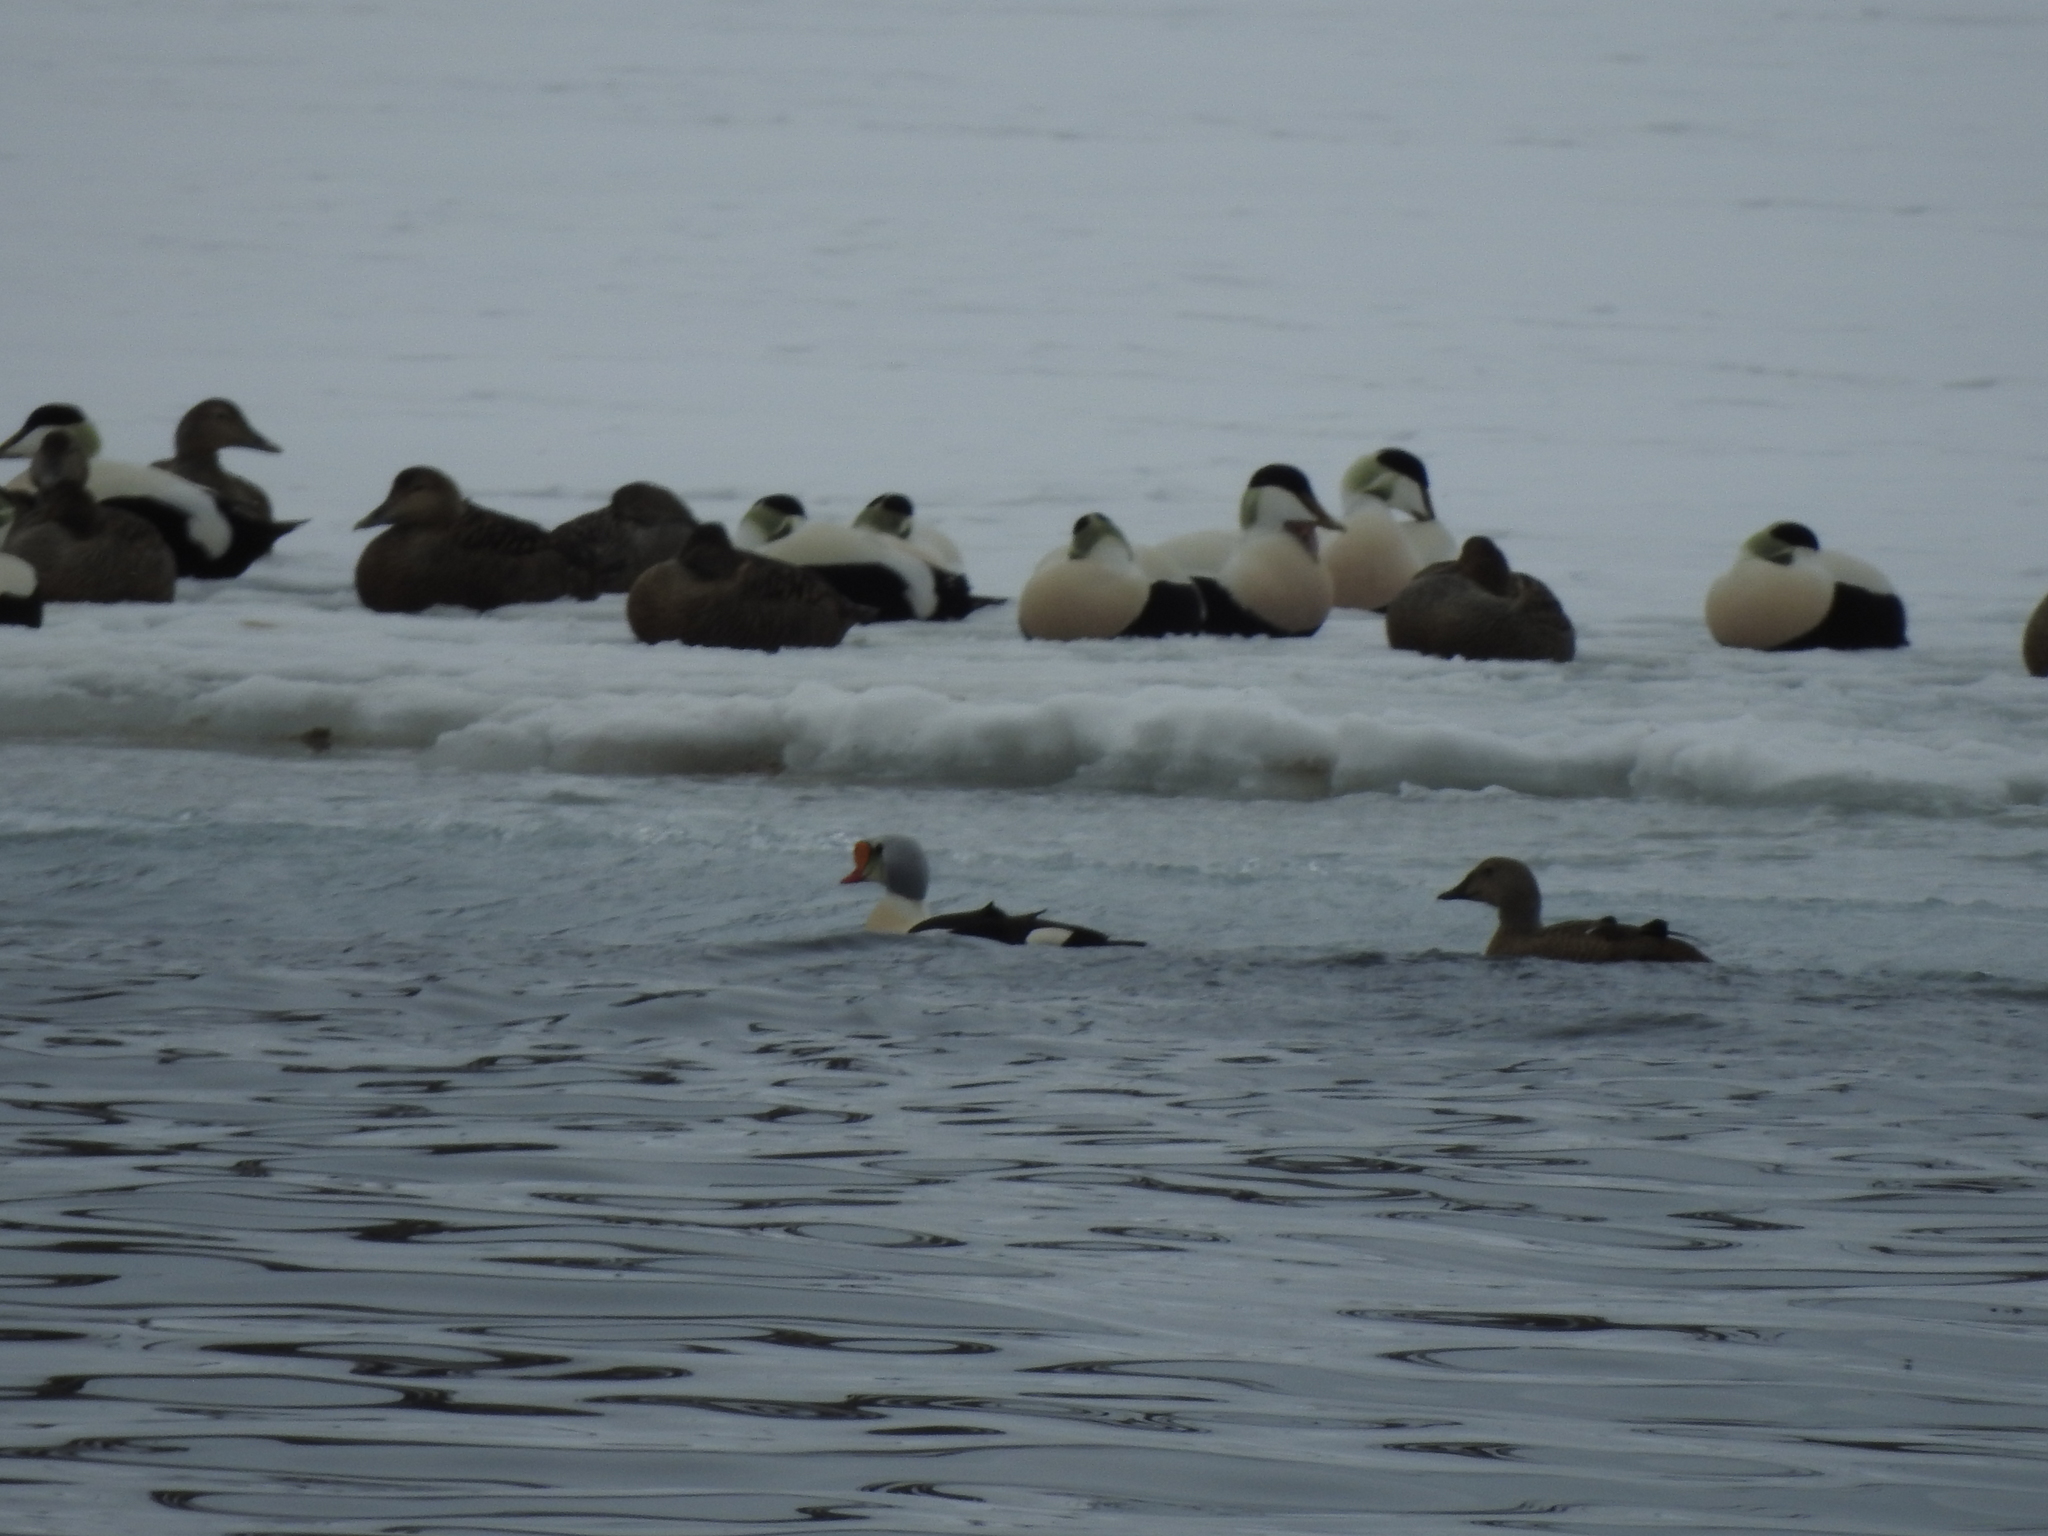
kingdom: Animalia
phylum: Chordata
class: Aves
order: Anseriformes
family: Anatidae
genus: Somateria
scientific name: Somateria spectabilis
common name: King eider
